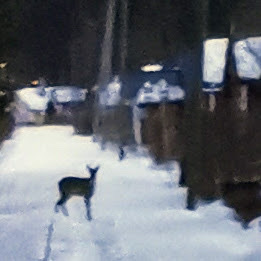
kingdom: Animalia
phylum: Chordata
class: Mammalia
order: Artiodactyla
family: Cervidae
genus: Capreolus
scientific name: Capreolus capreolus
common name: Western roe deer
